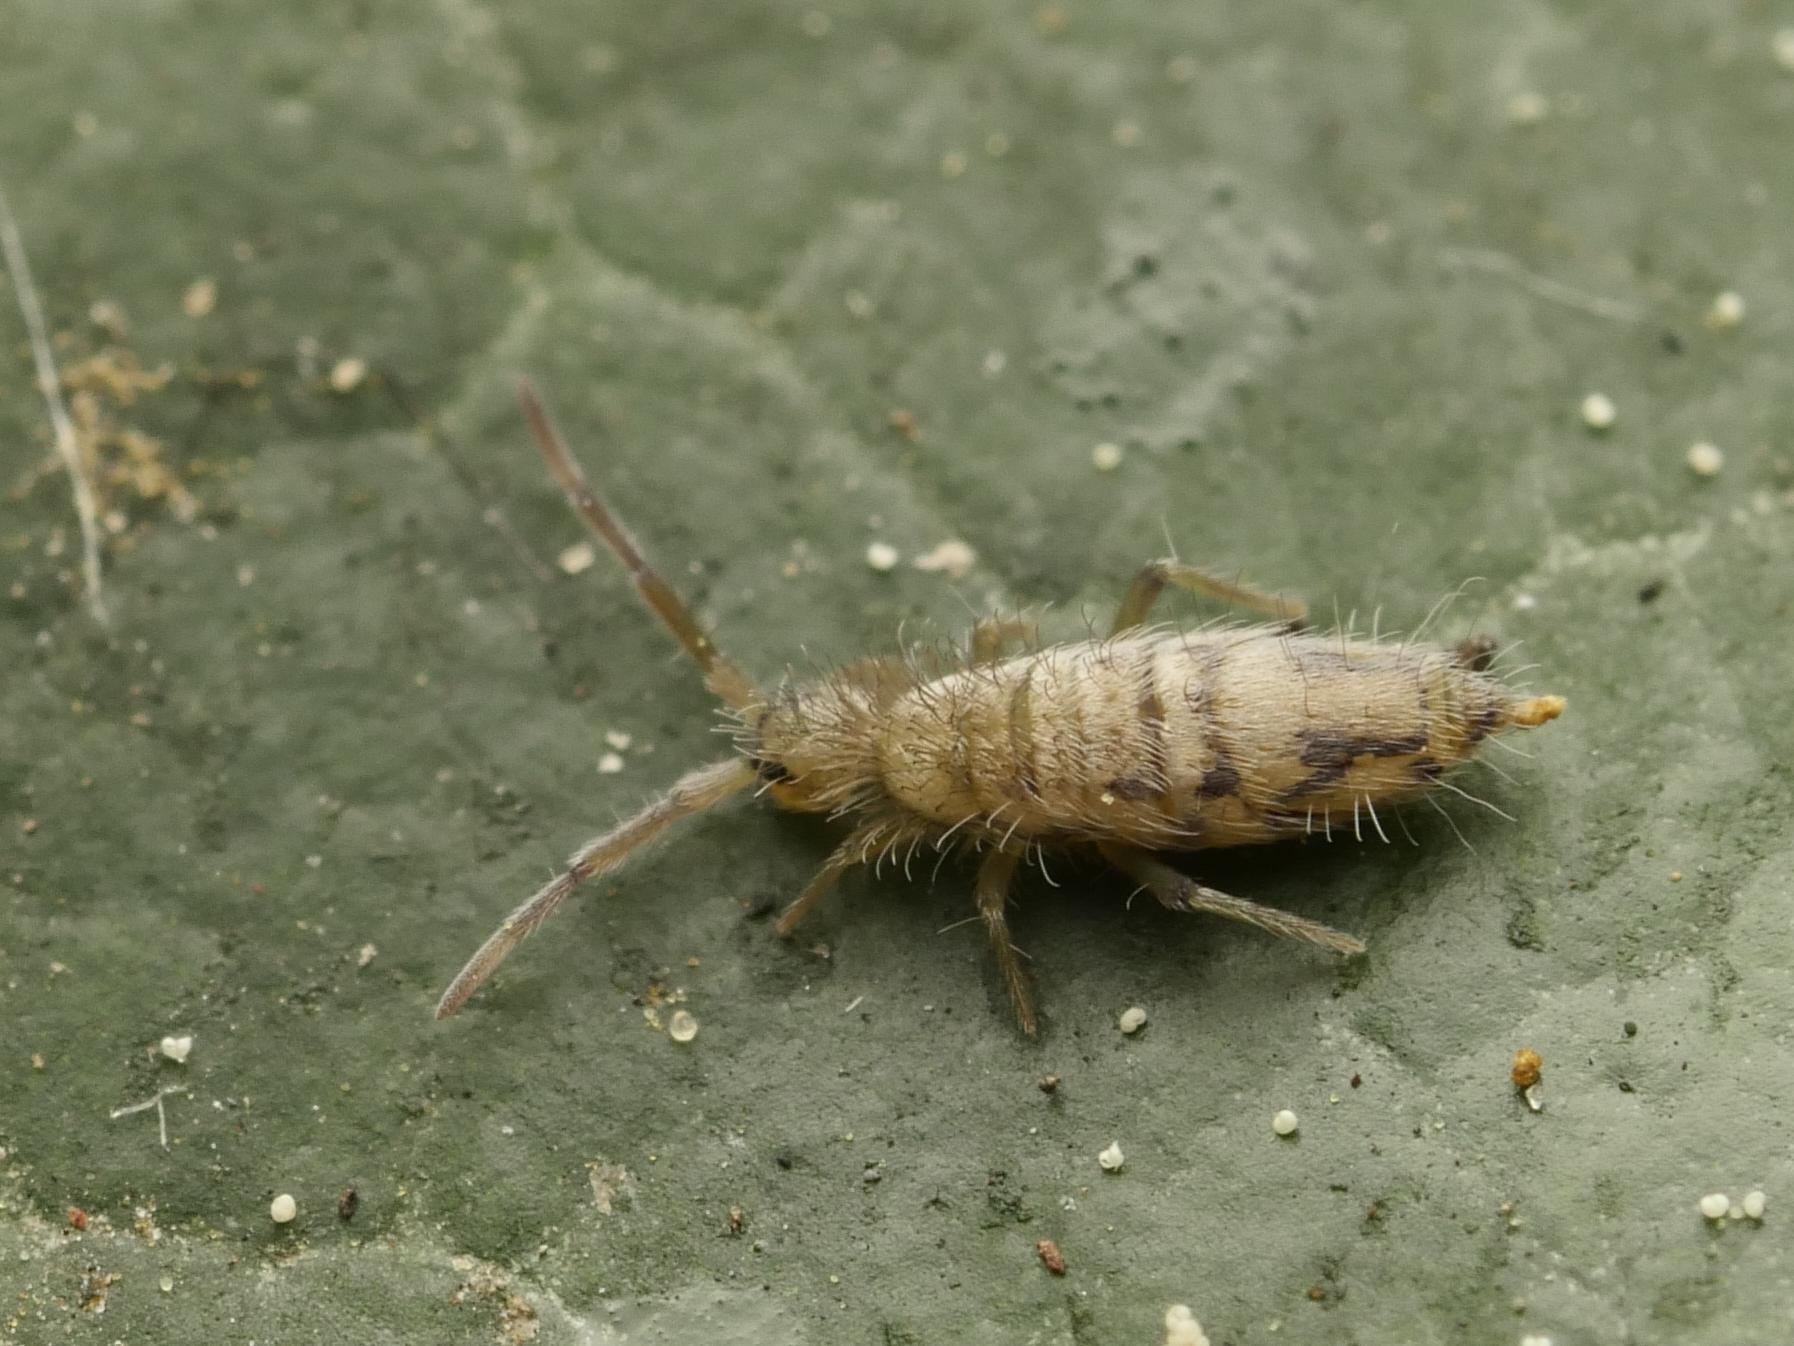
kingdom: Animalia
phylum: Arthropoda
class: Collembola
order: Entomobryomorpha
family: Entomobryidae
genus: Entomobrya
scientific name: Entomobrya nivalis
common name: Cosmopolitan springtail
